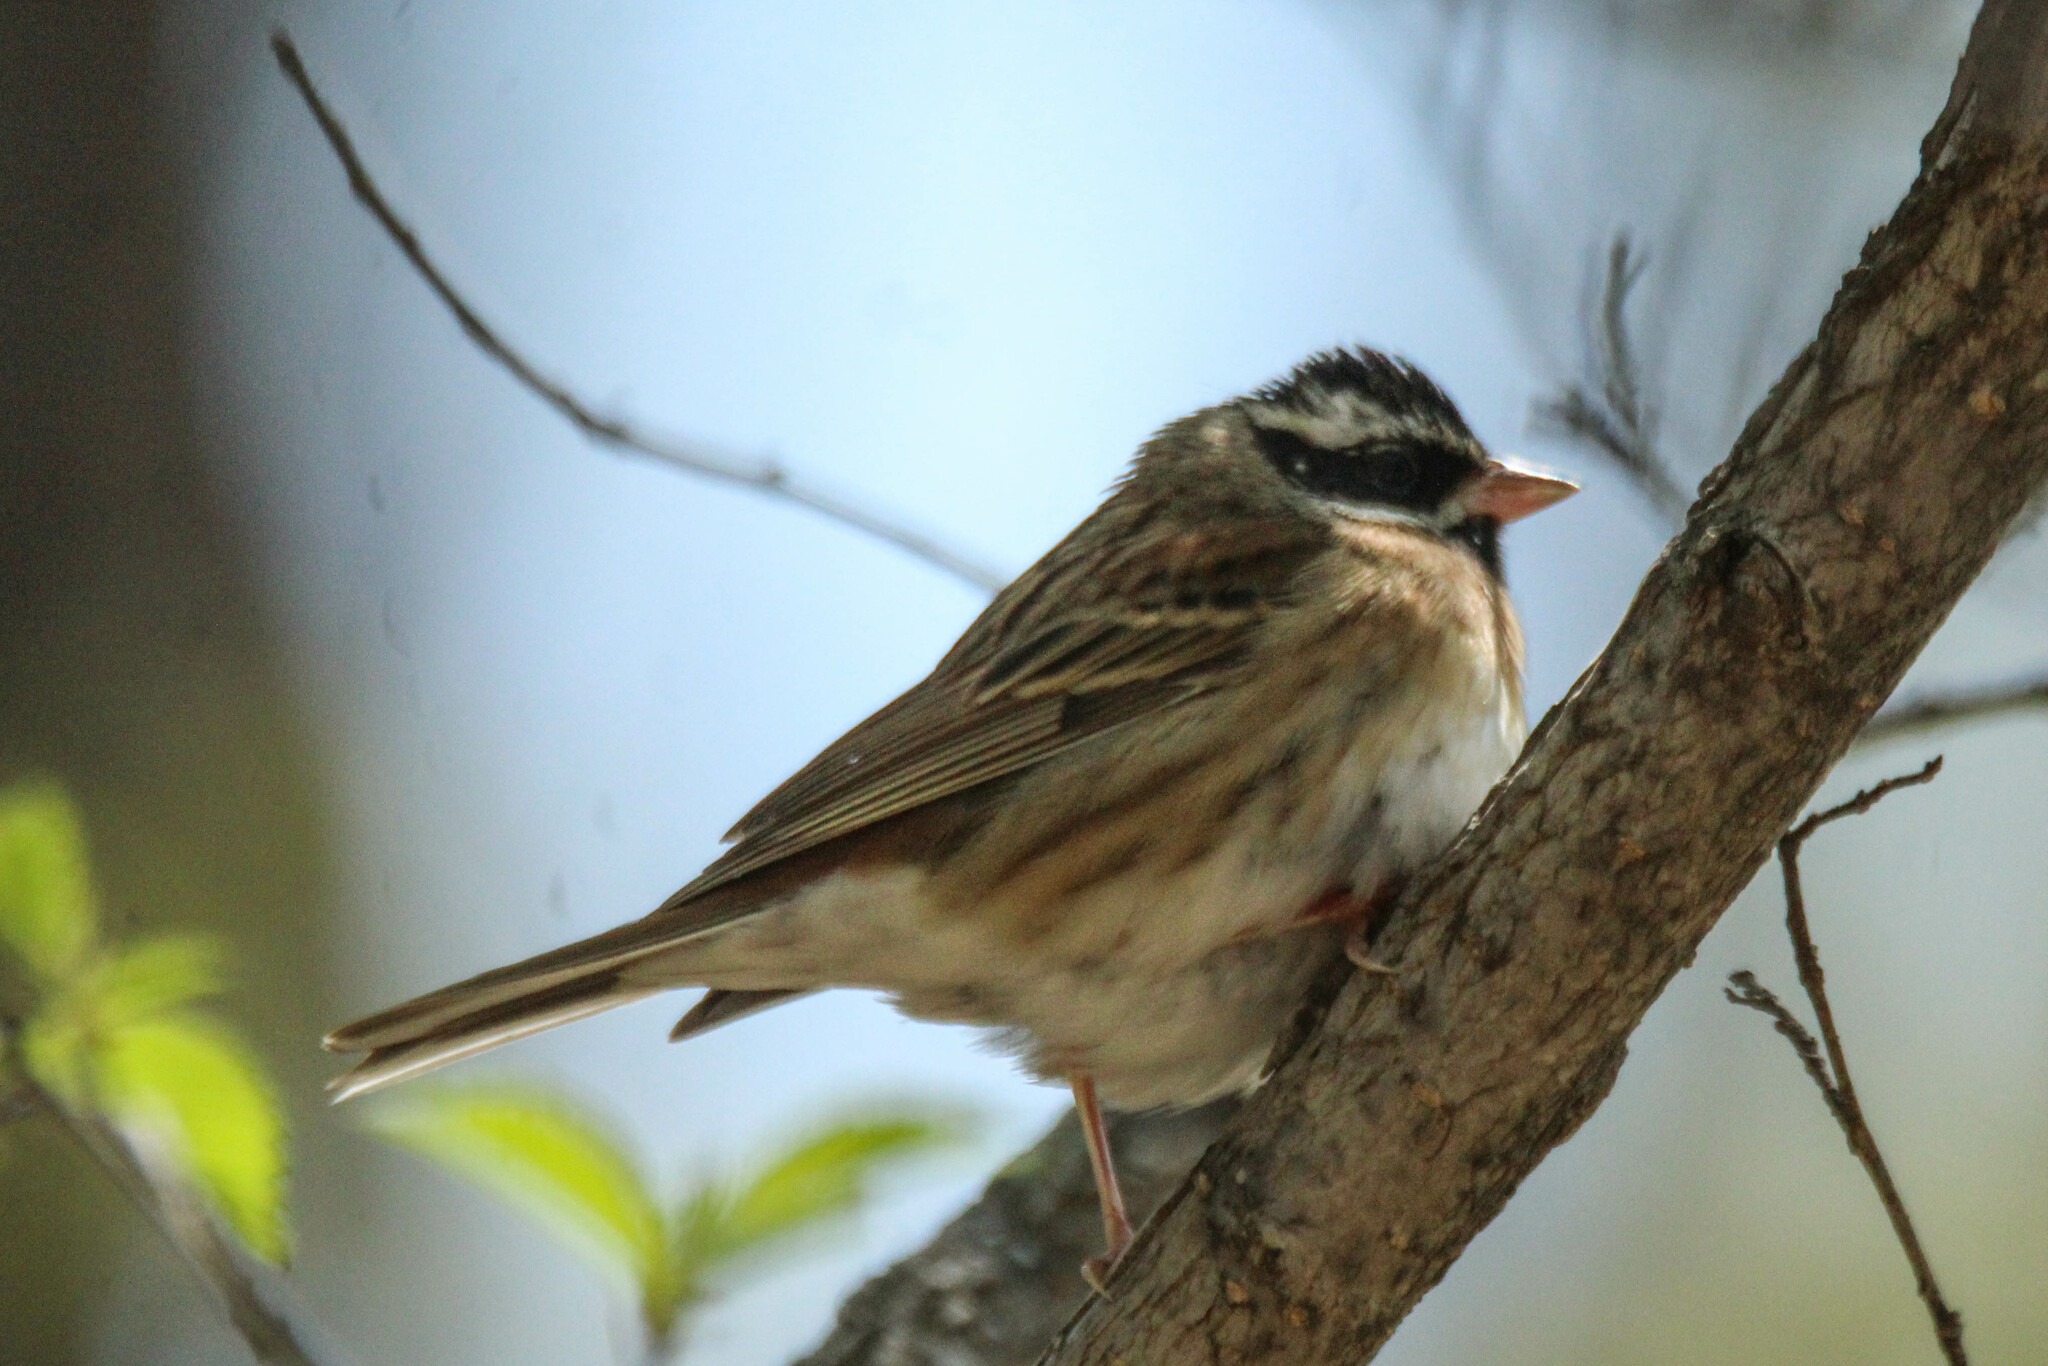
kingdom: Animalia
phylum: Chordata
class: Aves
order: Passeriformes
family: Emberizidae
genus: Emberiza
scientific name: Emberiza tristrami
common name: Tristram's bunting
